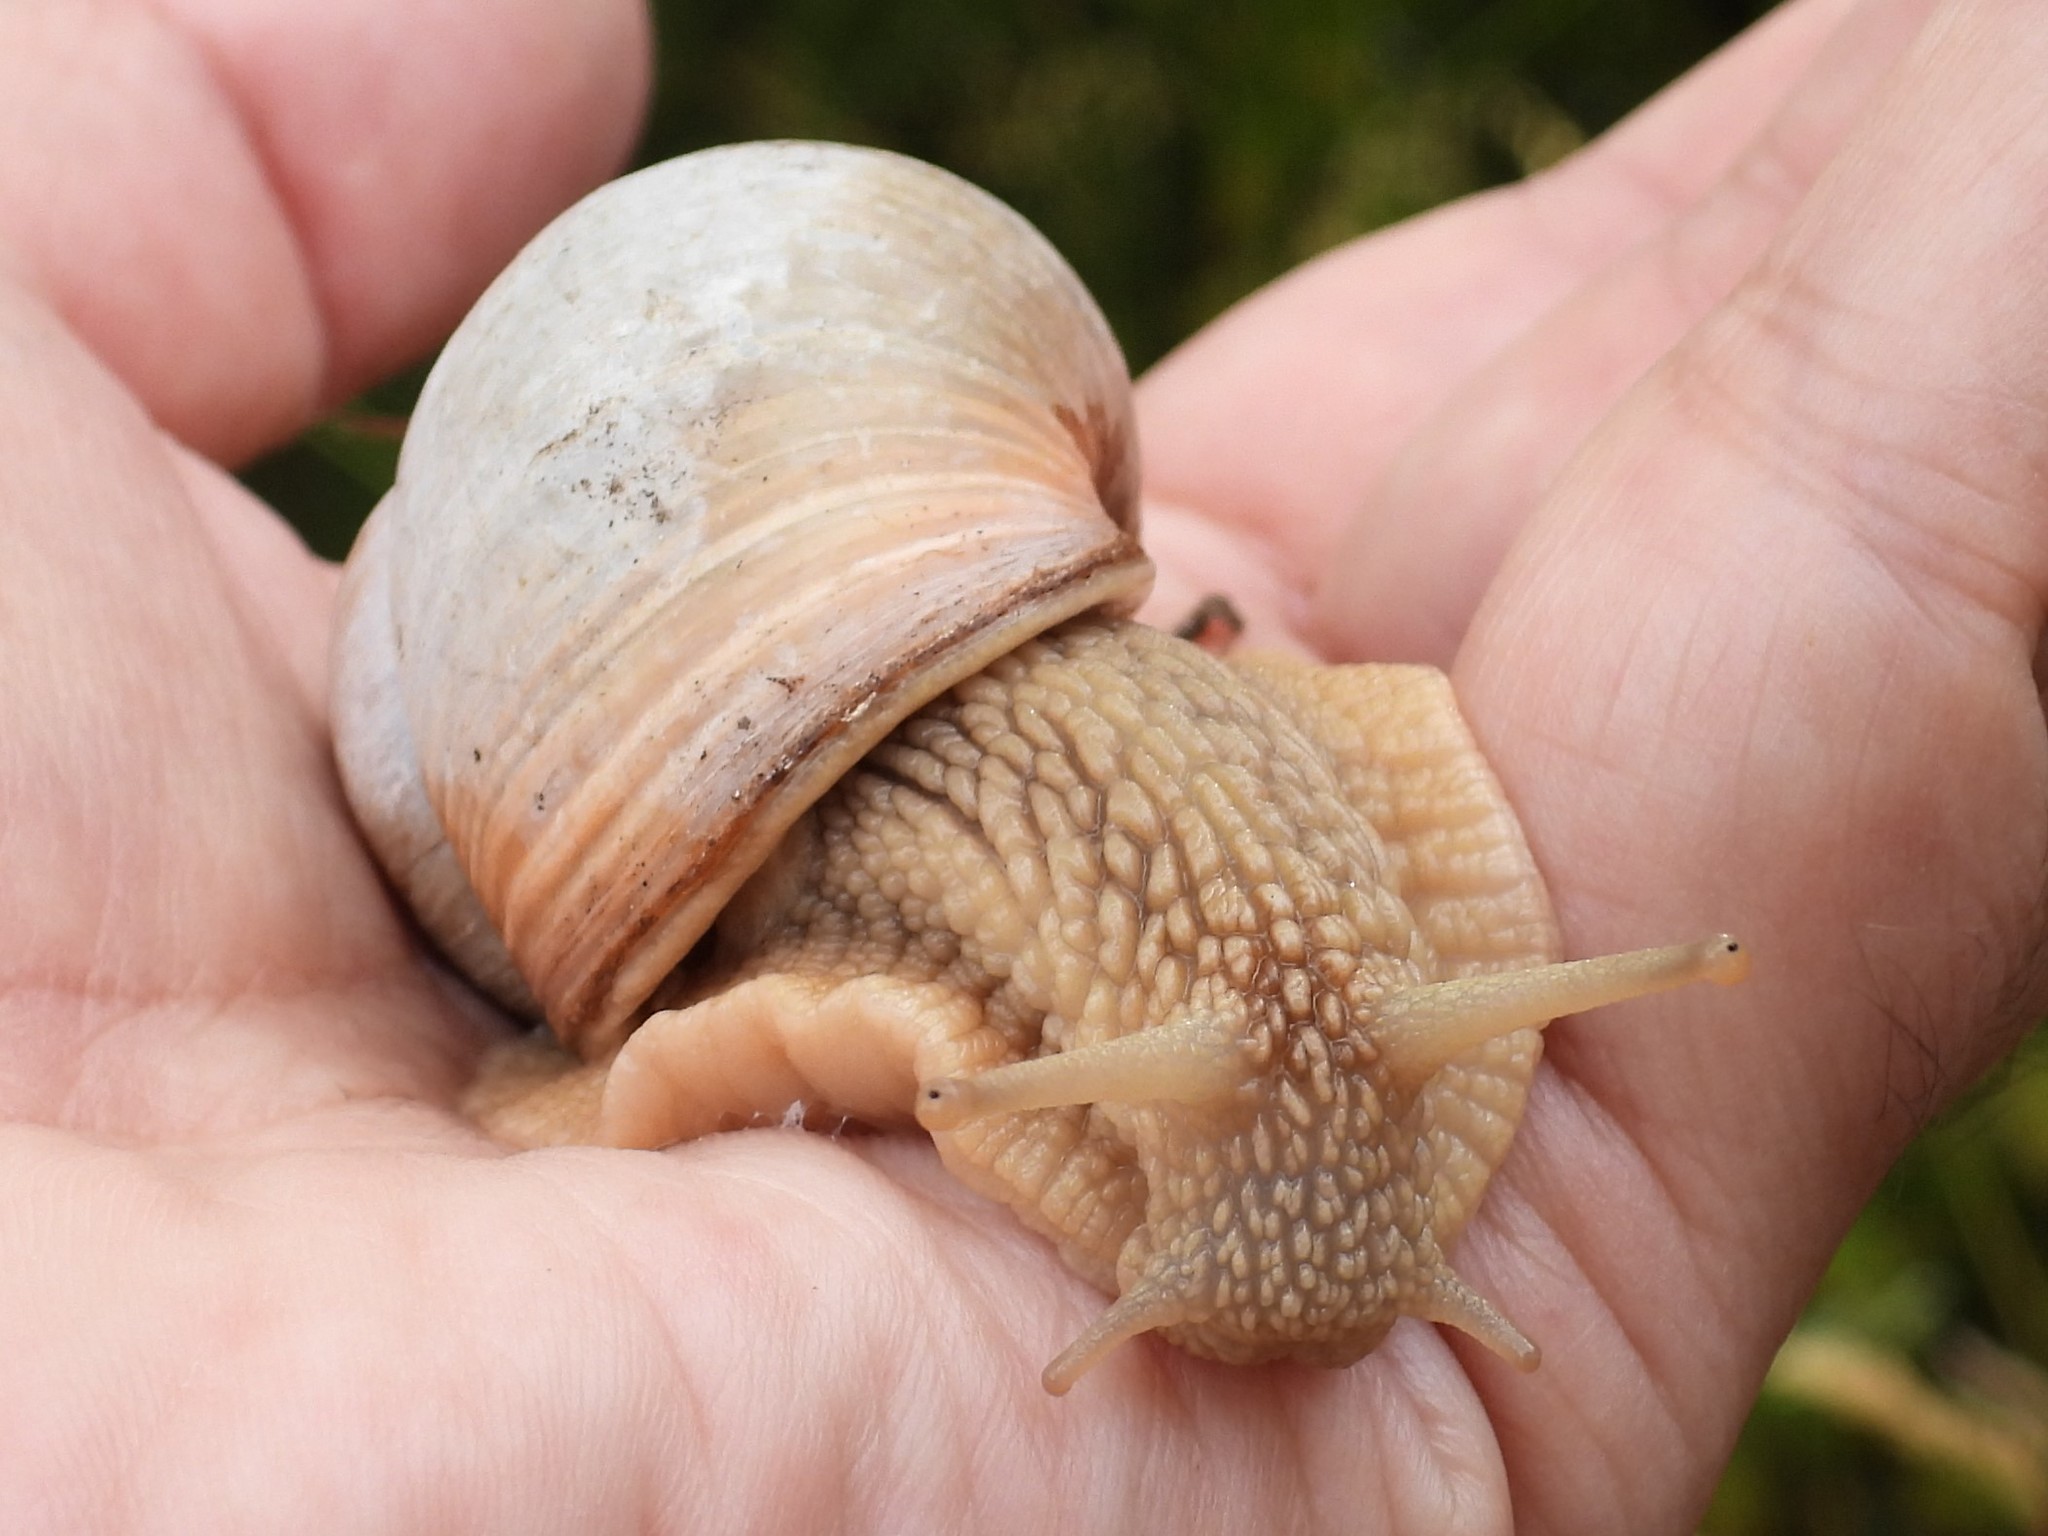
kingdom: Animalia
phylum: Mollusca
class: Gastropoda
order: Stylommatophora
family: Helicidae
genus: Helix
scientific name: Helix pomatia
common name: Roman snail
